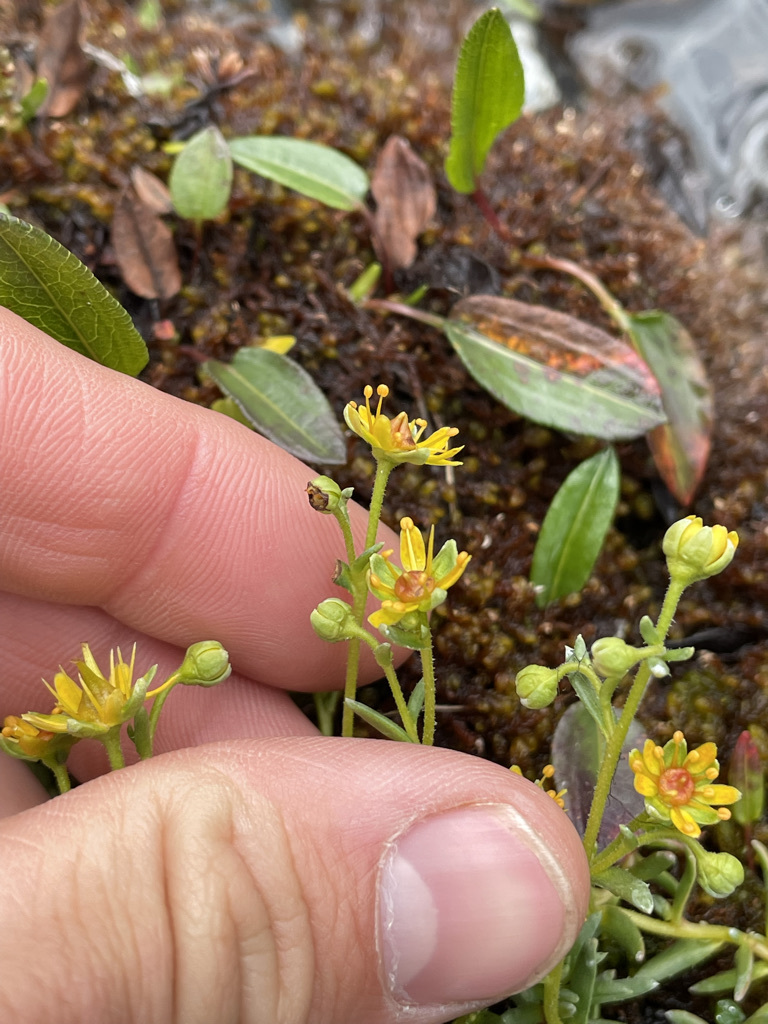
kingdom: Plantae
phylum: Tracheophyta
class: Magnoliopsida
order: Saxifragales
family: Saxifragaceae
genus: Saxifraga
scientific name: Saxifraga aizoides
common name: Yellow mountain saxifrage
